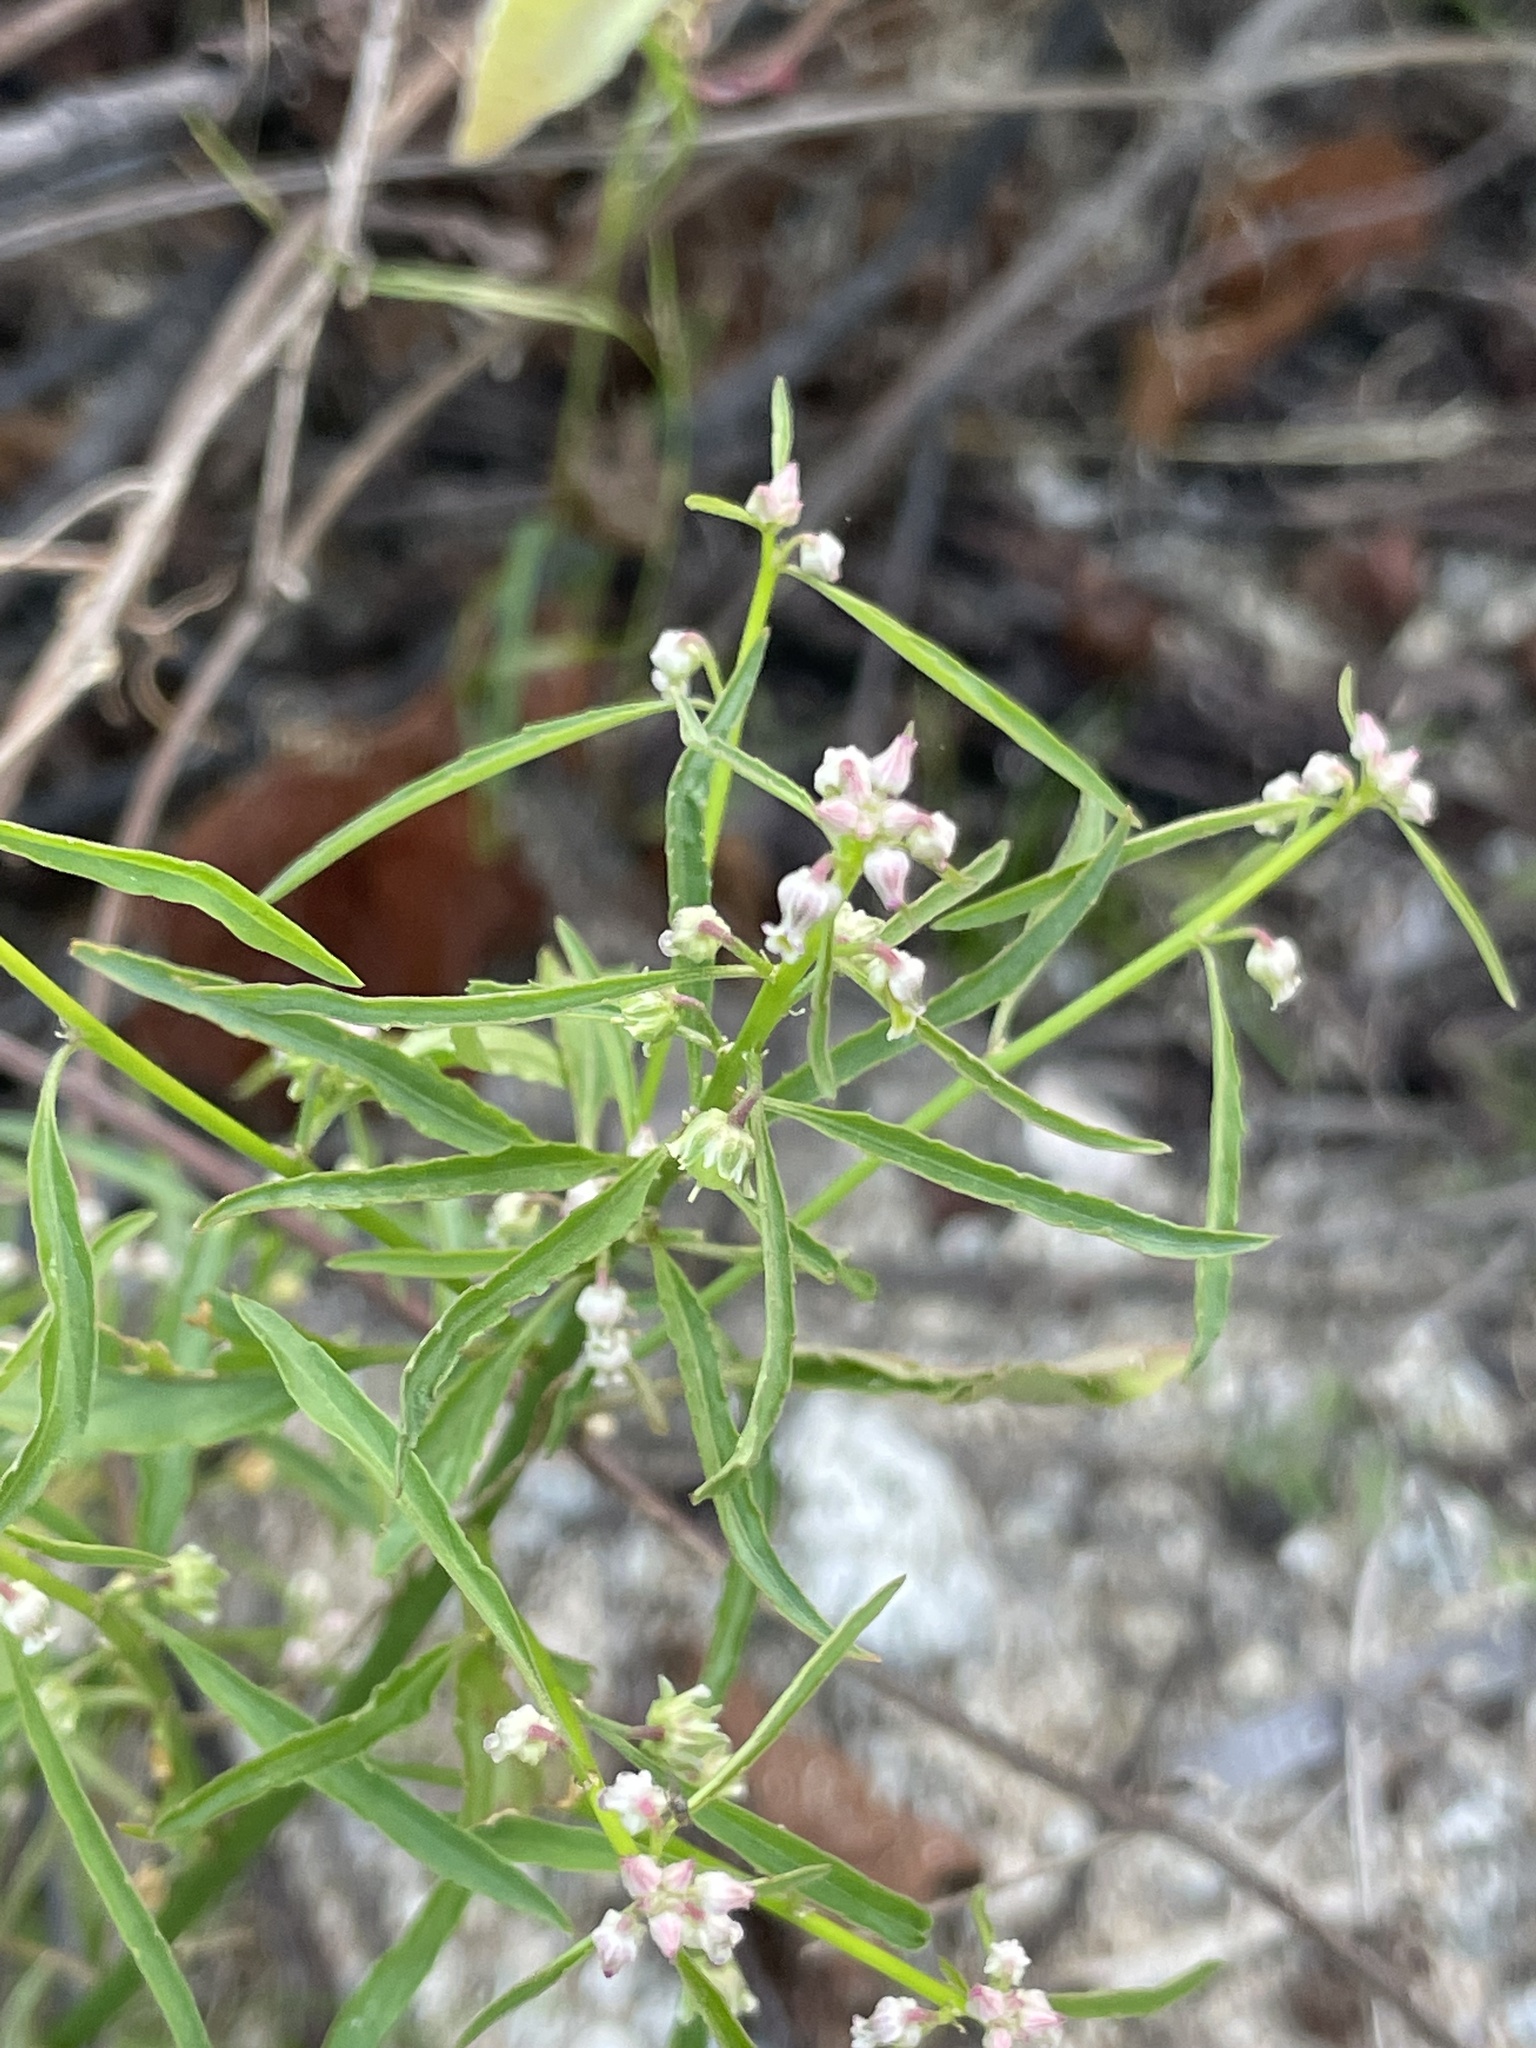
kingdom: Plantae
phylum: Tracheophyta
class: Magnoliopsida
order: Malpighiales
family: Violaceae
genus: Hybanthus
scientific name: Hybanthus fruticulosus
